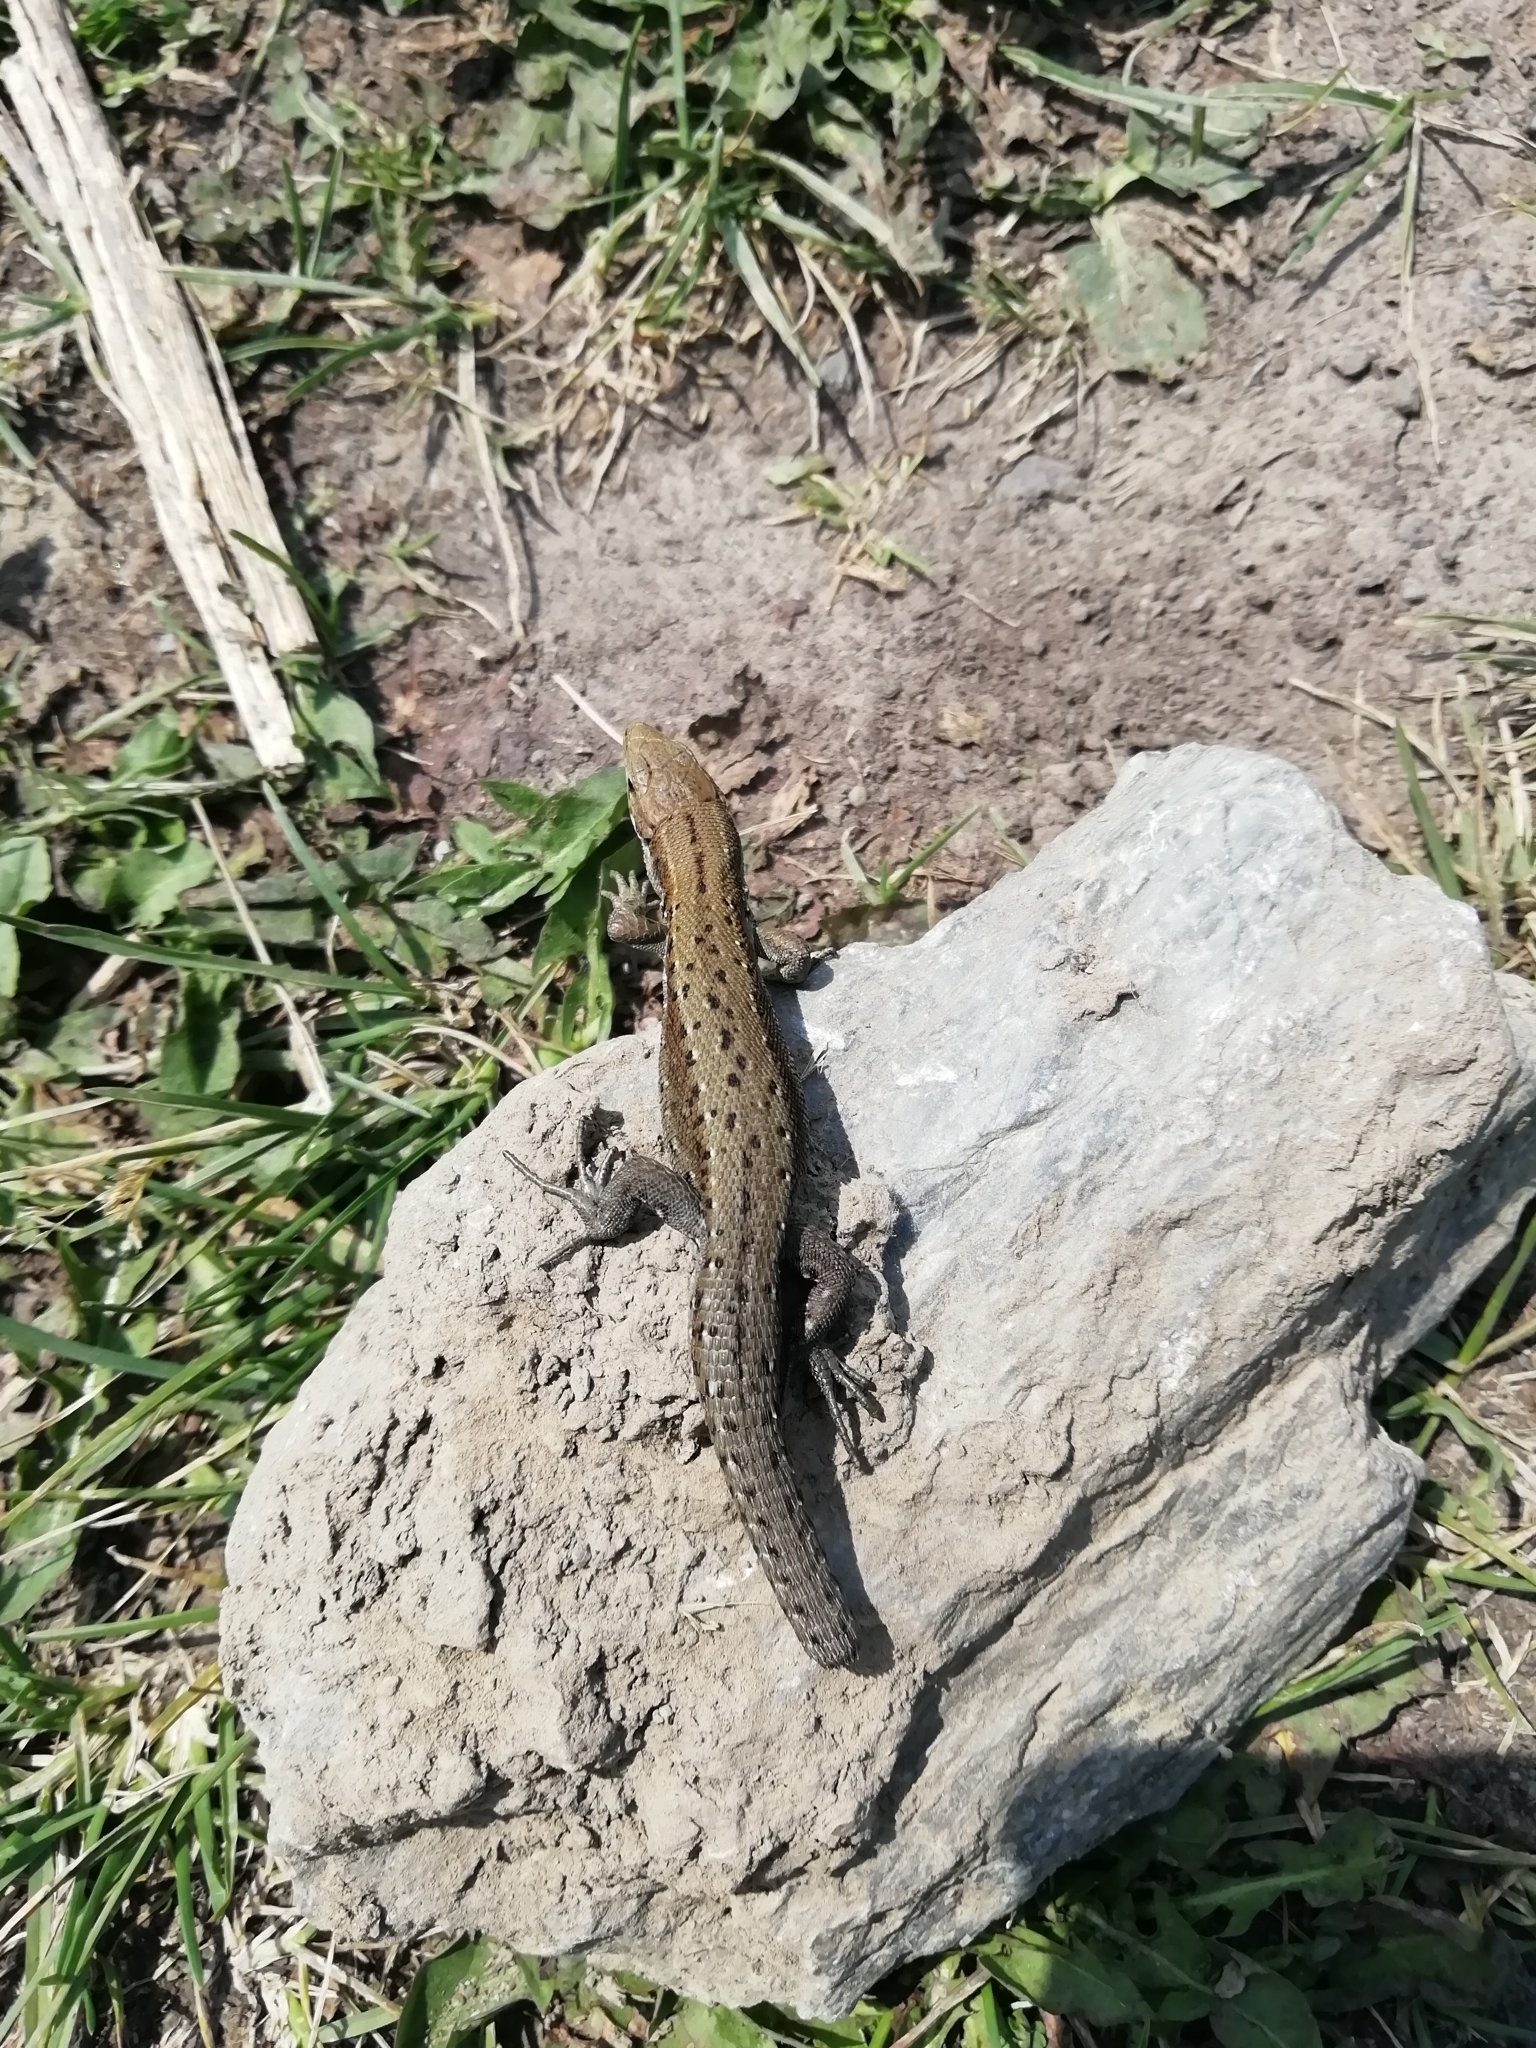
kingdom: Animalia
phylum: Chordata
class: Squamata
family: Lacertidae
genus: Zootoca
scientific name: Zootoca vivipara
